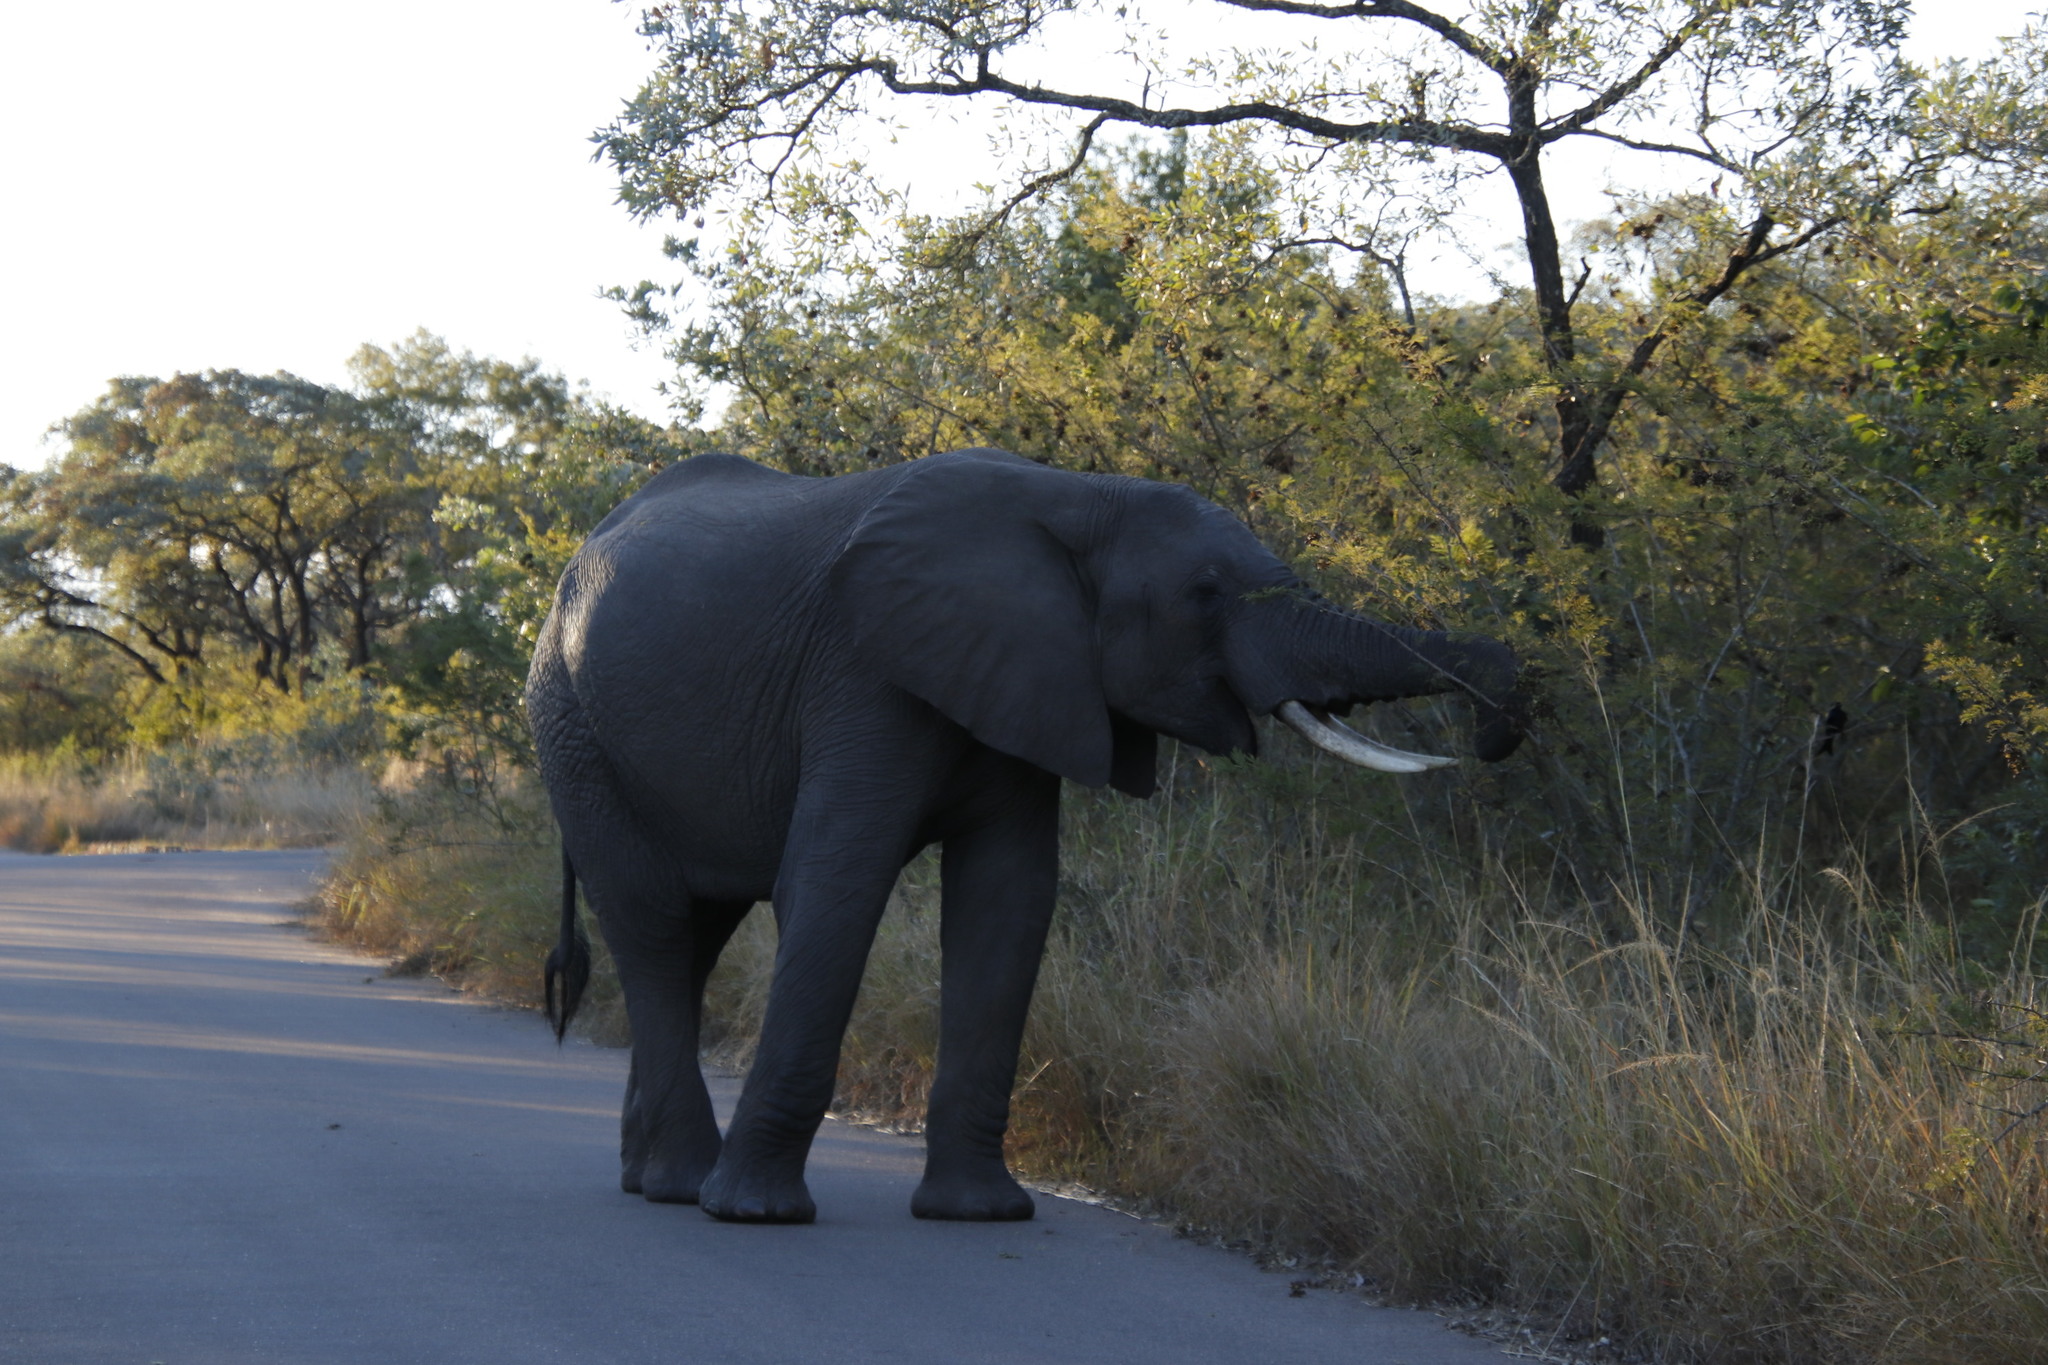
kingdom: Plantae
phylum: Tracheophyta
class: Magnoliopsida
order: Fabales
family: Fabaceae
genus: Dichrostachys
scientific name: Dichrostachys cinerea
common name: Sicklebush
